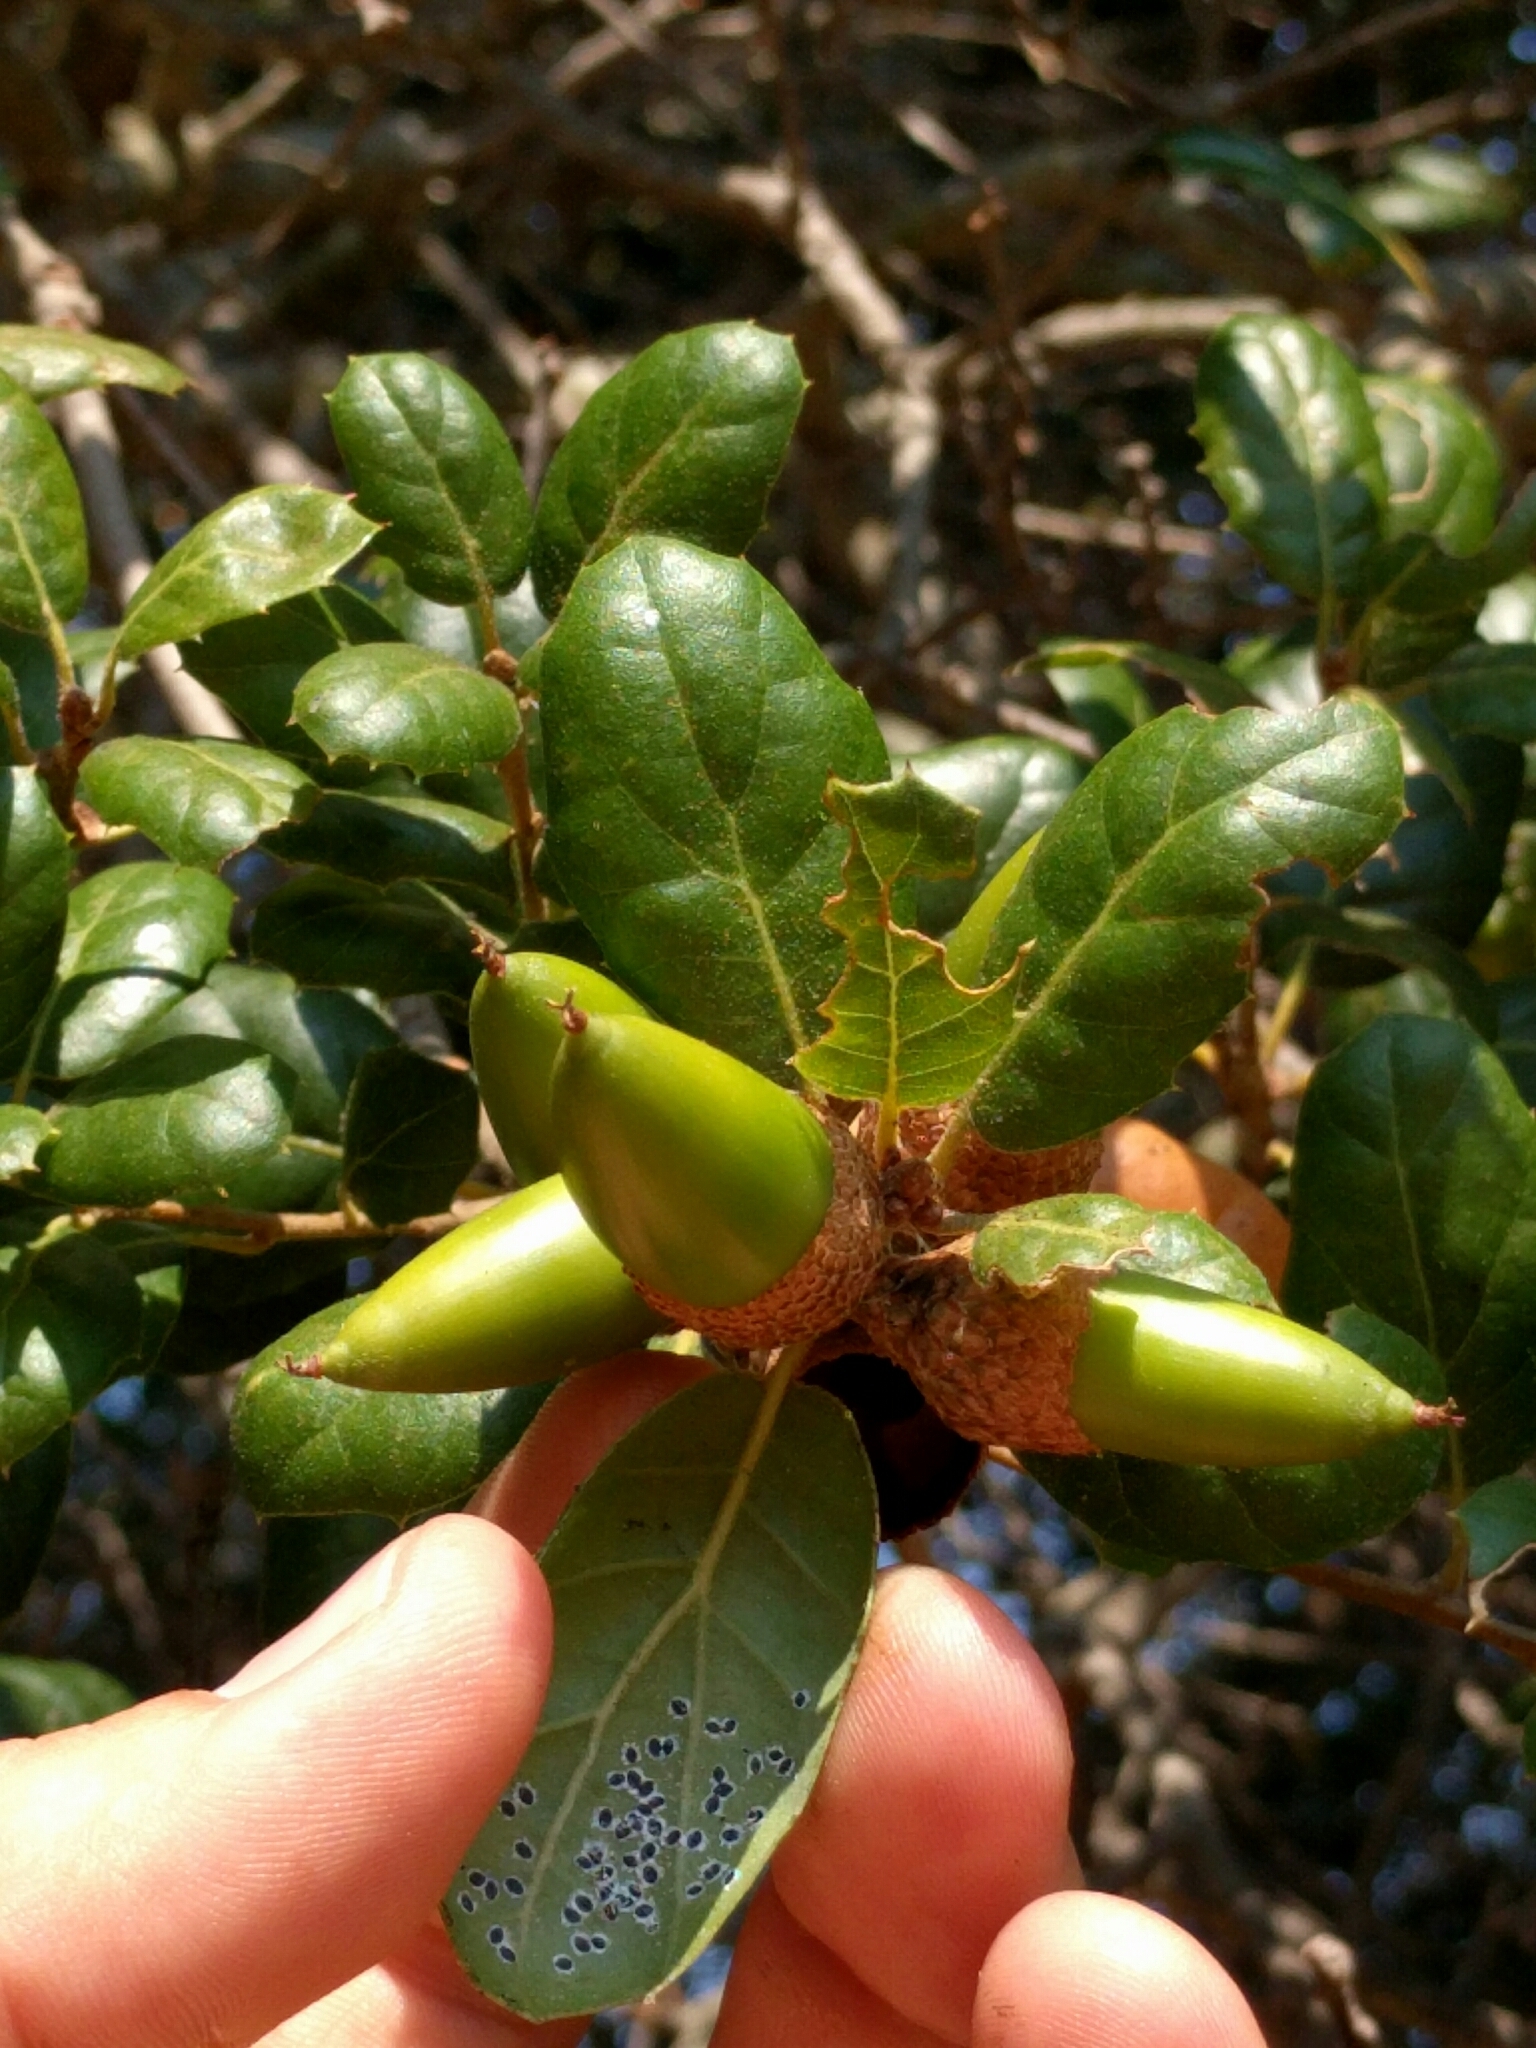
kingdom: Plantae
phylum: Tracheophyta
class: Magnoliopsida
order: Fagales
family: Fagaceae
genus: Quercus
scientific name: Quercus agrifolia
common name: California live oak
